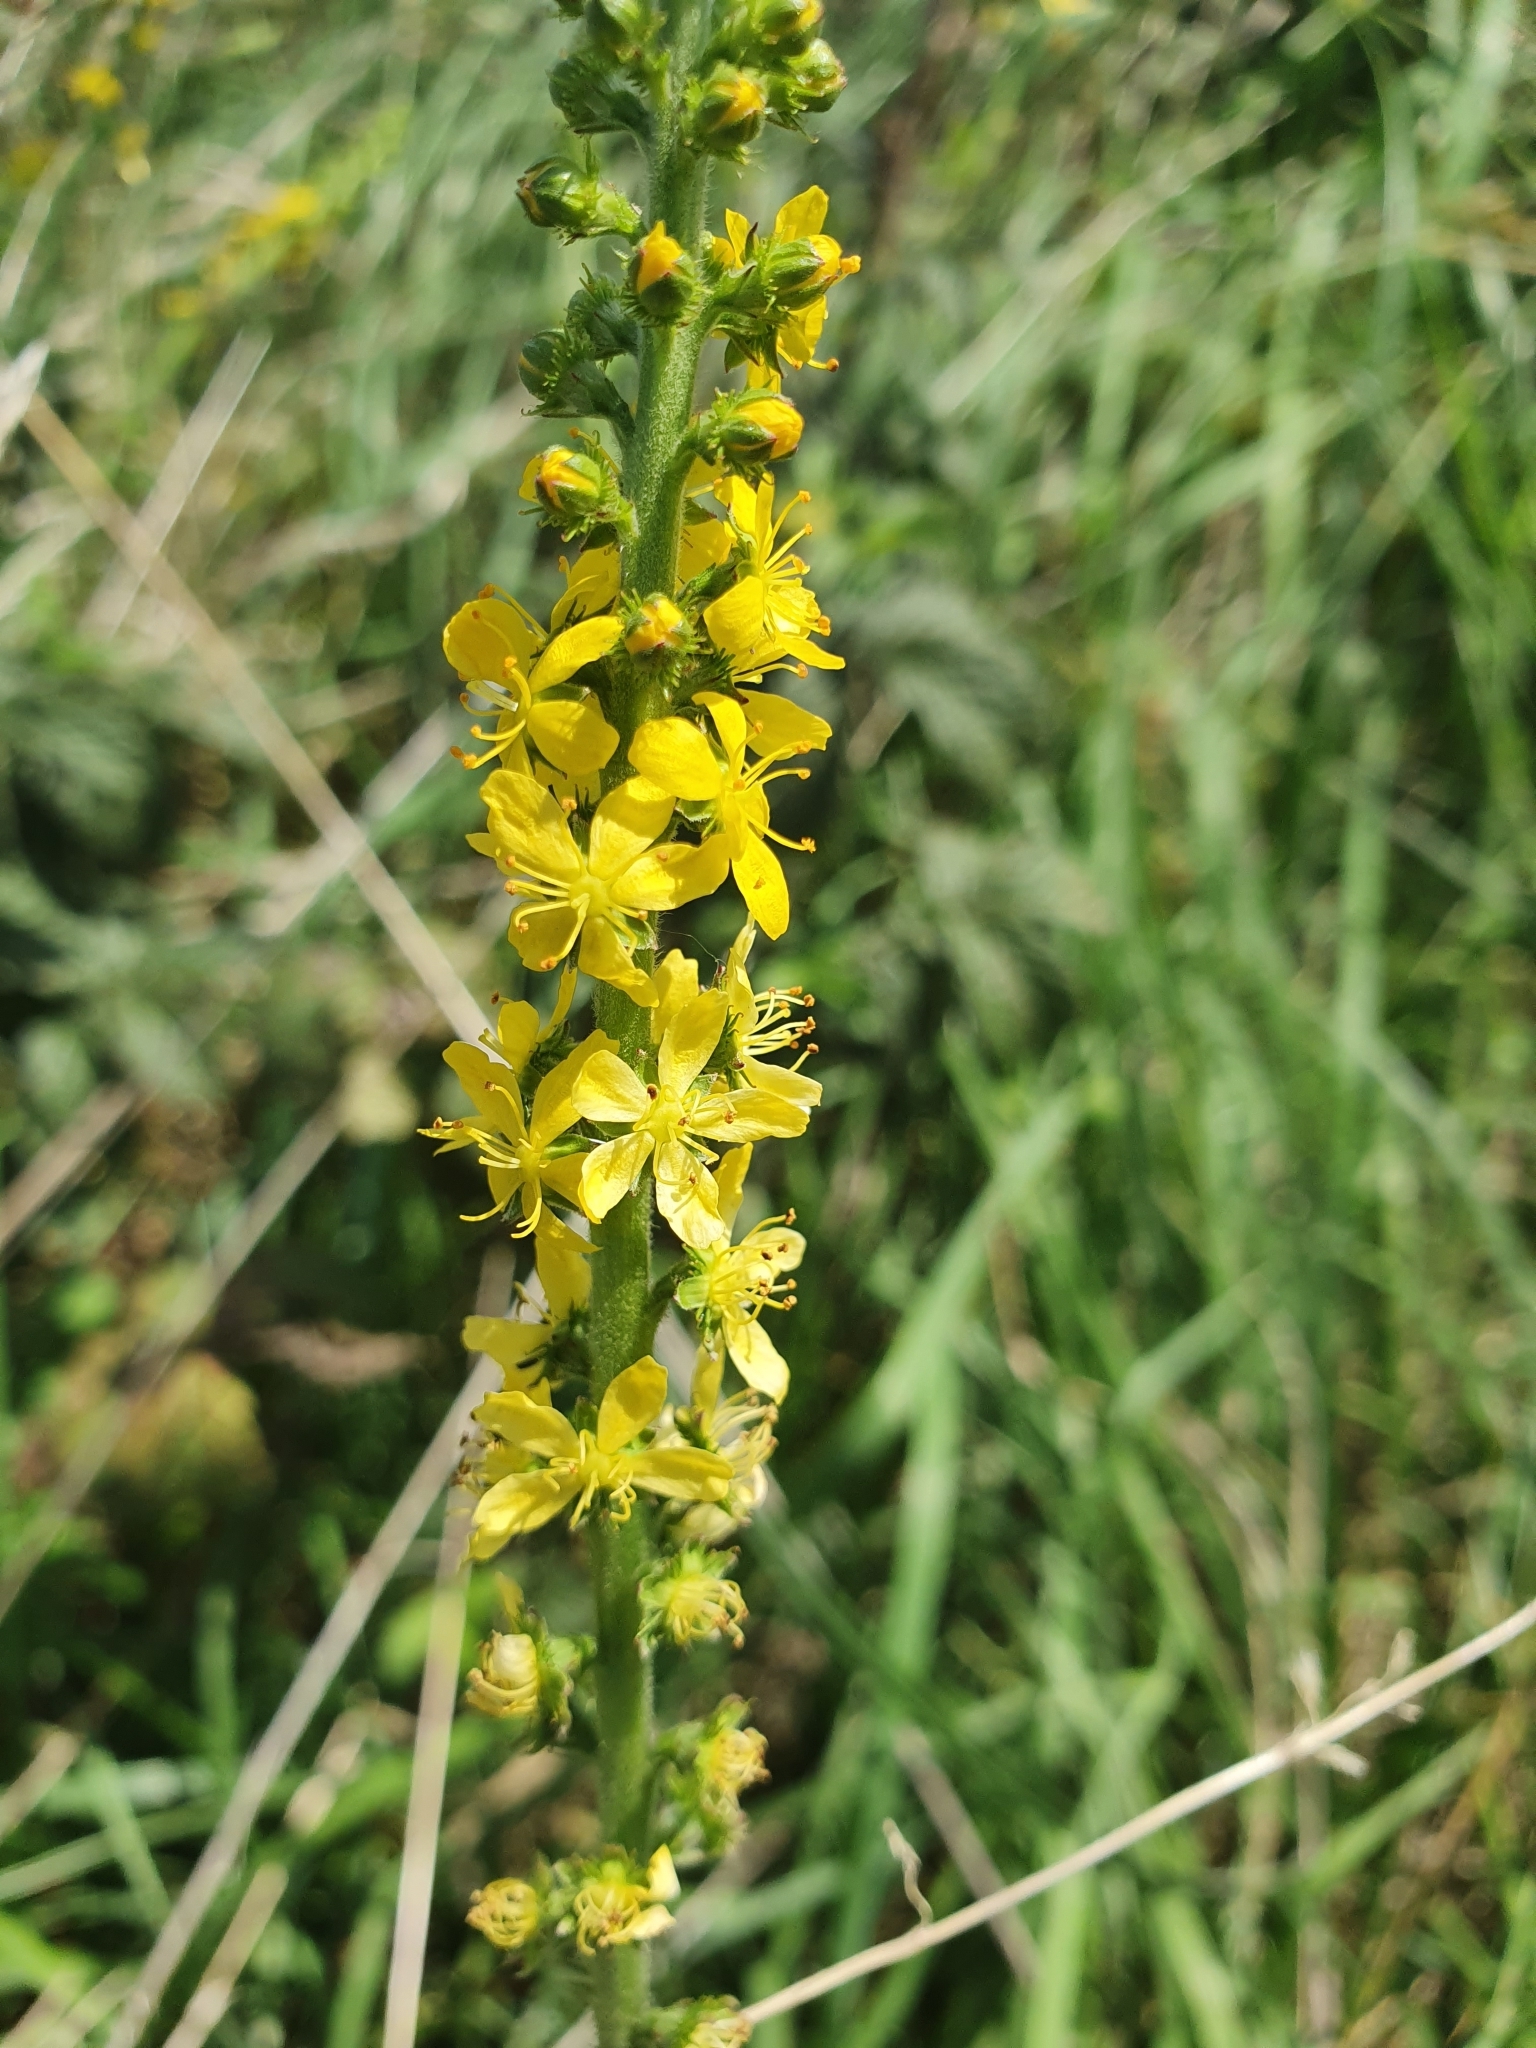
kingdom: Plantae
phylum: Tracheophyta
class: Magnoliopsida
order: Rosales
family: Rosaceae
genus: Agrimonia
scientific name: Agrimonia eupatoria
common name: Agrimony
